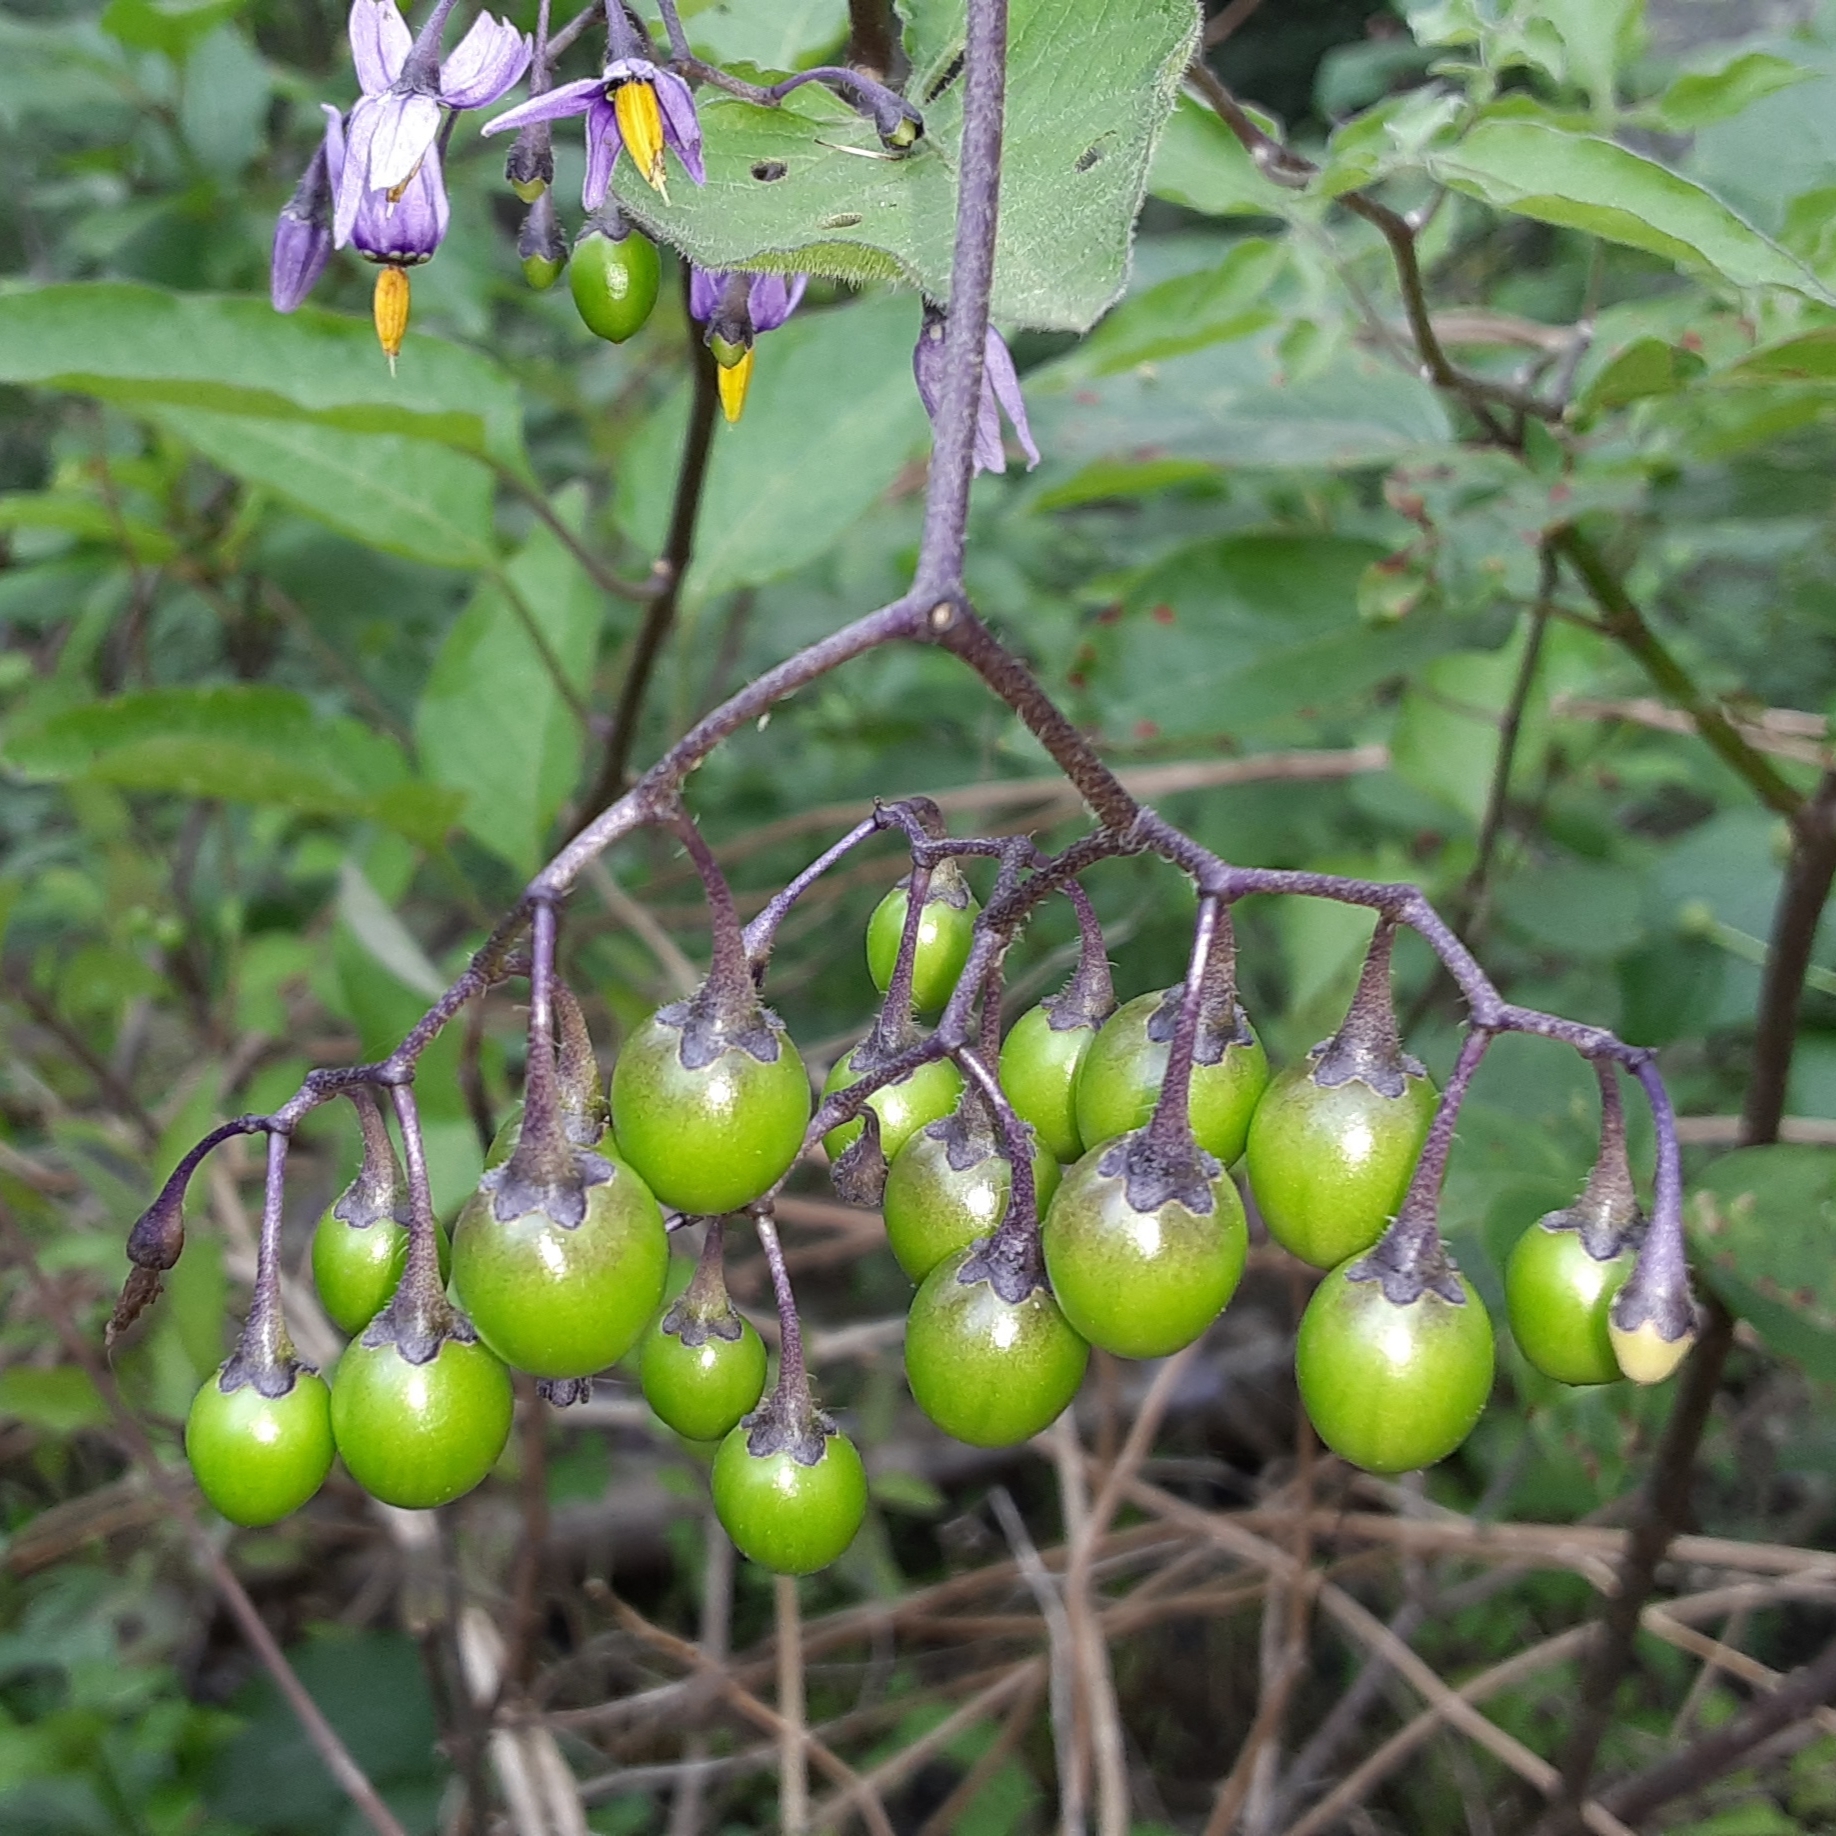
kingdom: Plantae
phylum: Tracheophyta
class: Magnoliopsida
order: Solanales
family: Solanaceae
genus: Solanum
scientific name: Solanum dulcamara
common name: Climbing nightshade
